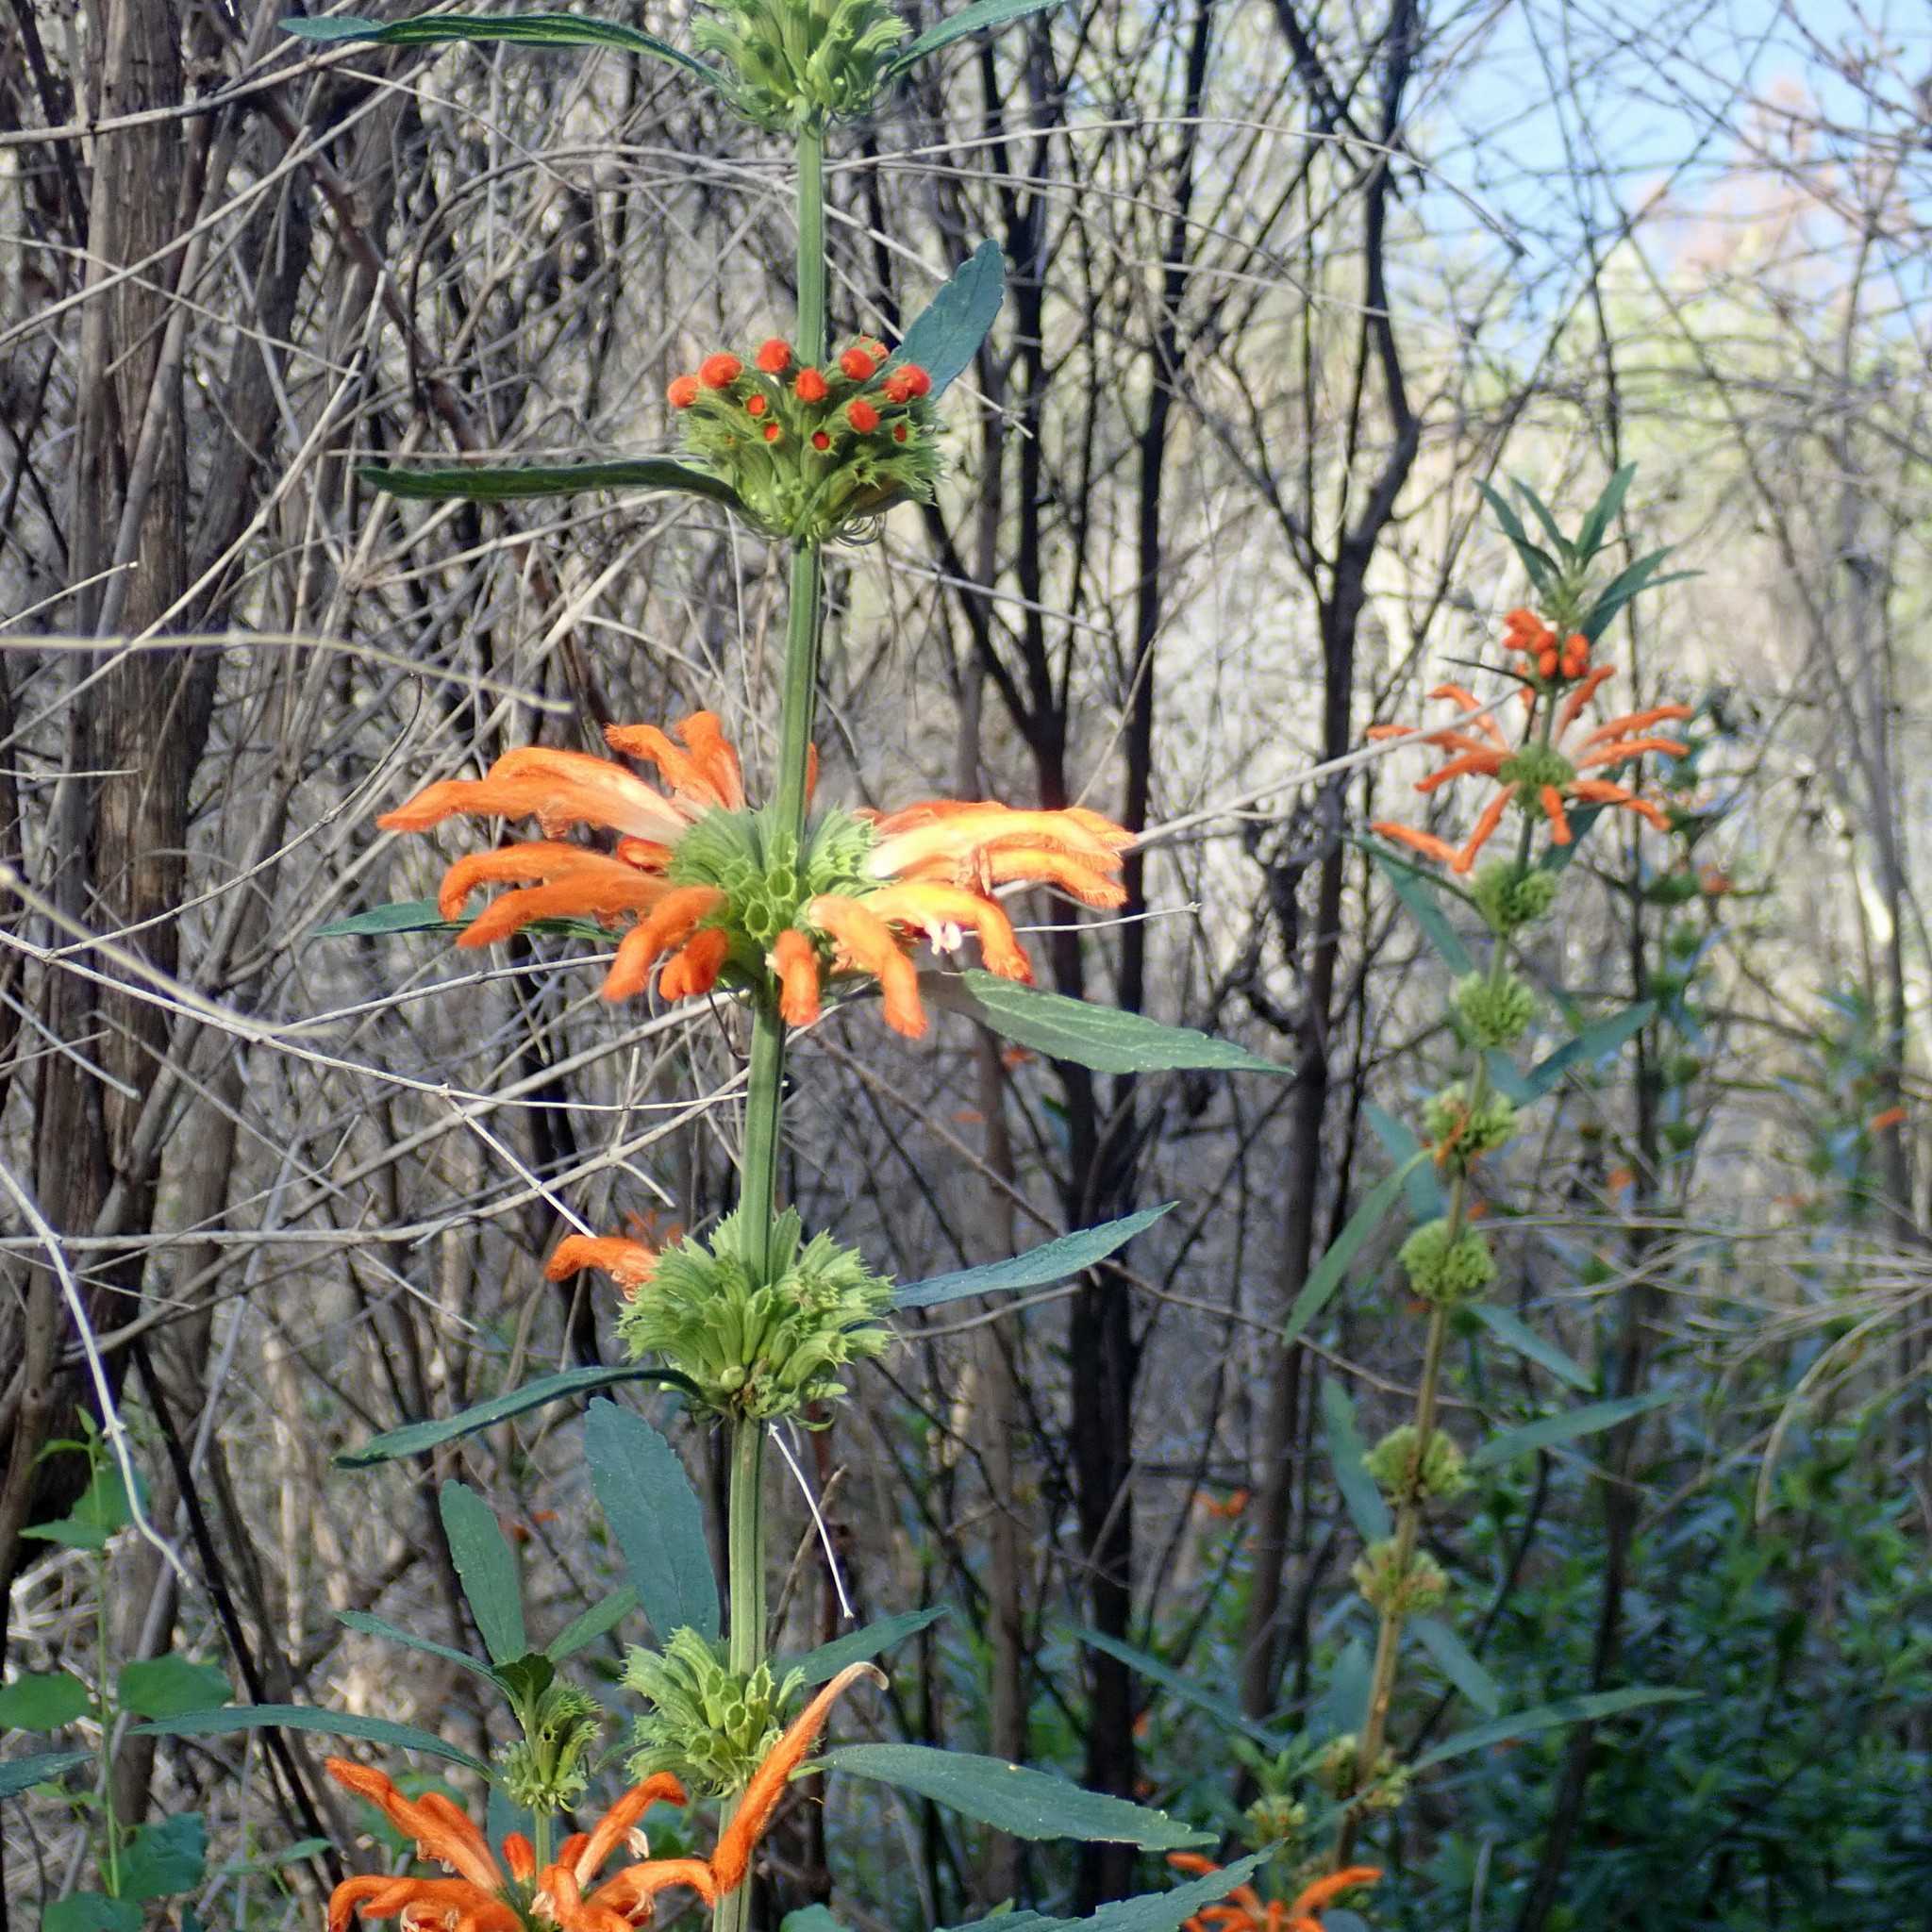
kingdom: Plantae
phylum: Tracheophyta
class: Magnoliopsida
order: Lamiales
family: Lamiaceae
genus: Leonotis
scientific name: Leonotis leonurus
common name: Lion's ear
